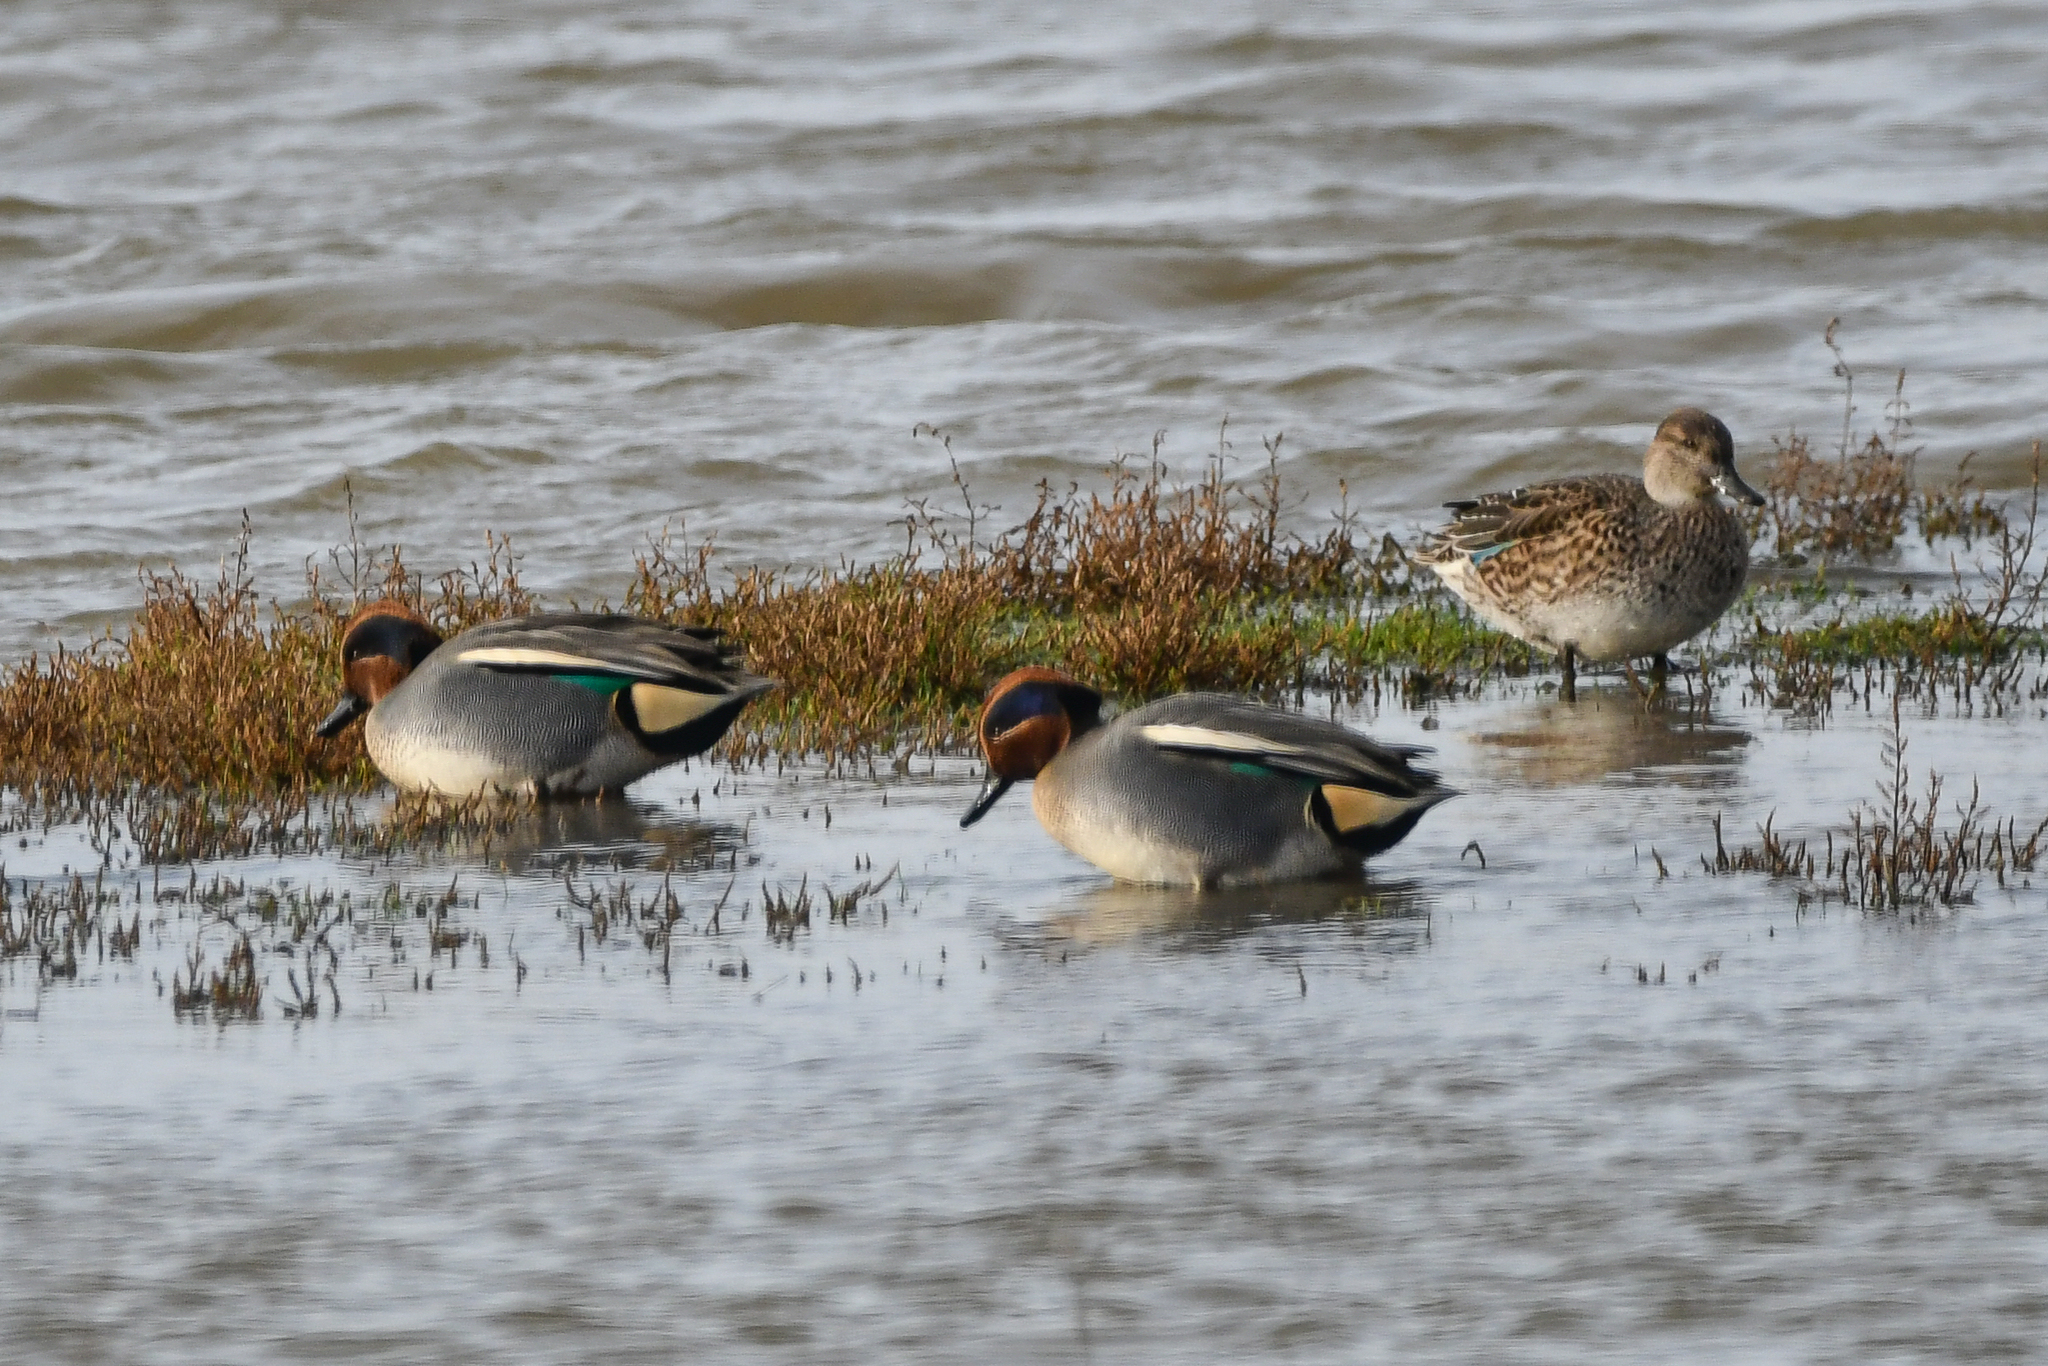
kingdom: Animalia
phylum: Chordata
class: Aves
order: Anseriformes
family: Anatidae
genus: Anas
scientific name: Anas crecca
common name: Eurasian teal
